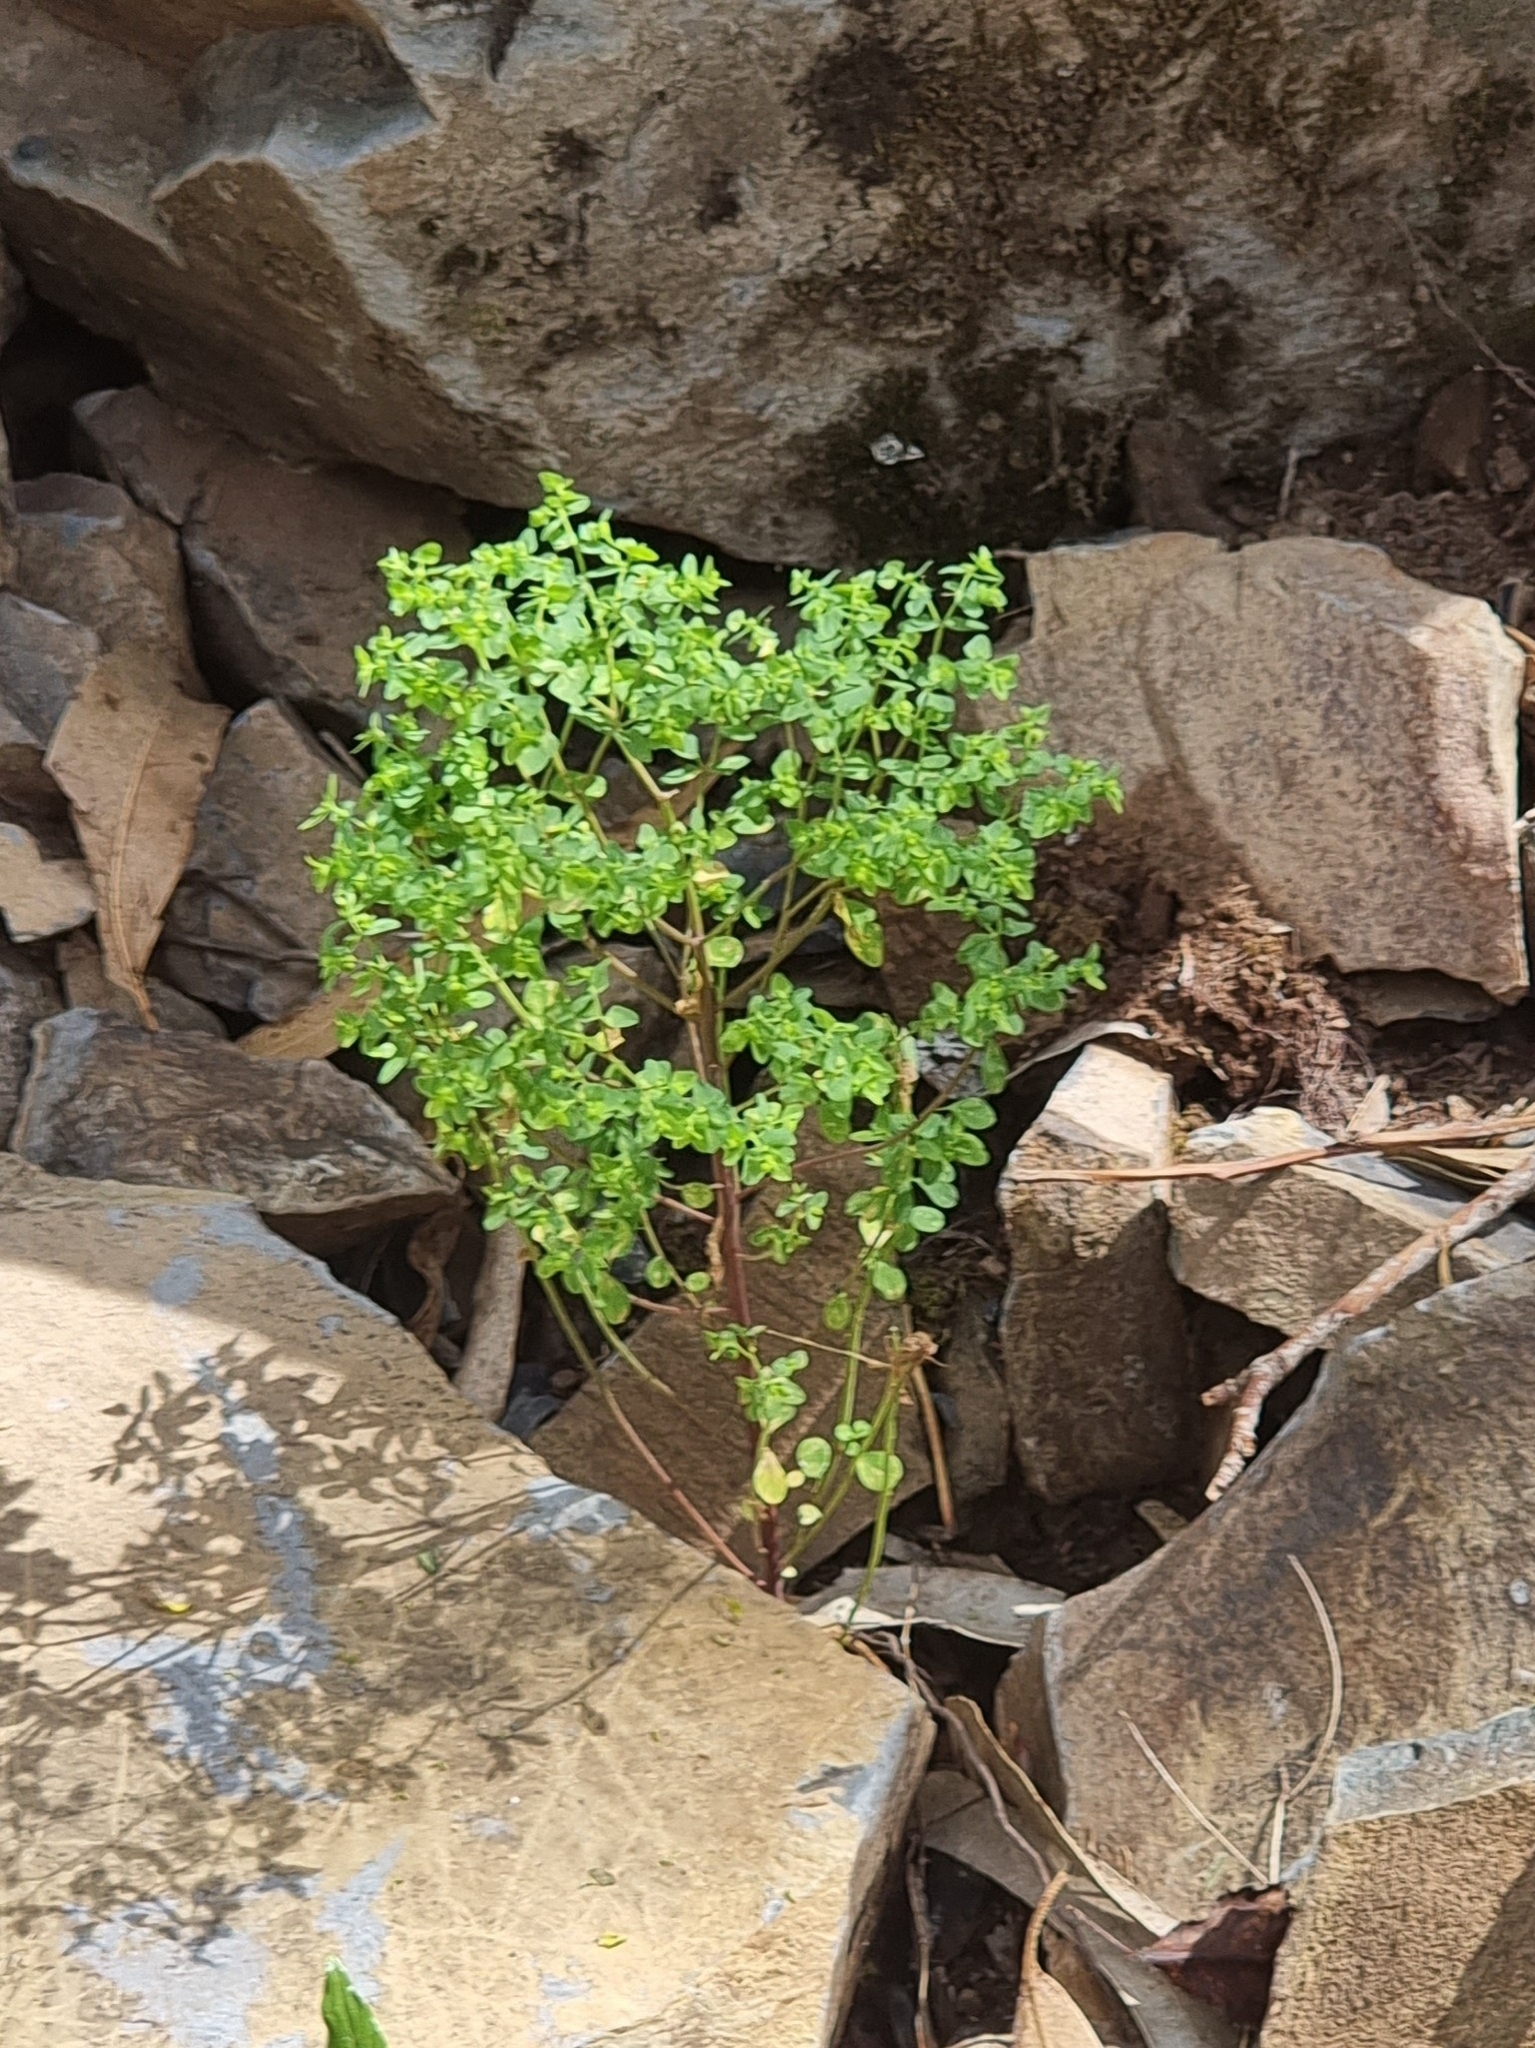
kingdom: Plantae
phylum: Tracheophyta
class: Magnoliopsida
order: Malpighiales
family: Euphorbiaceae
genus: Euphorbia
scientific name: Euphorbia peplus
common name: Petty spurge
